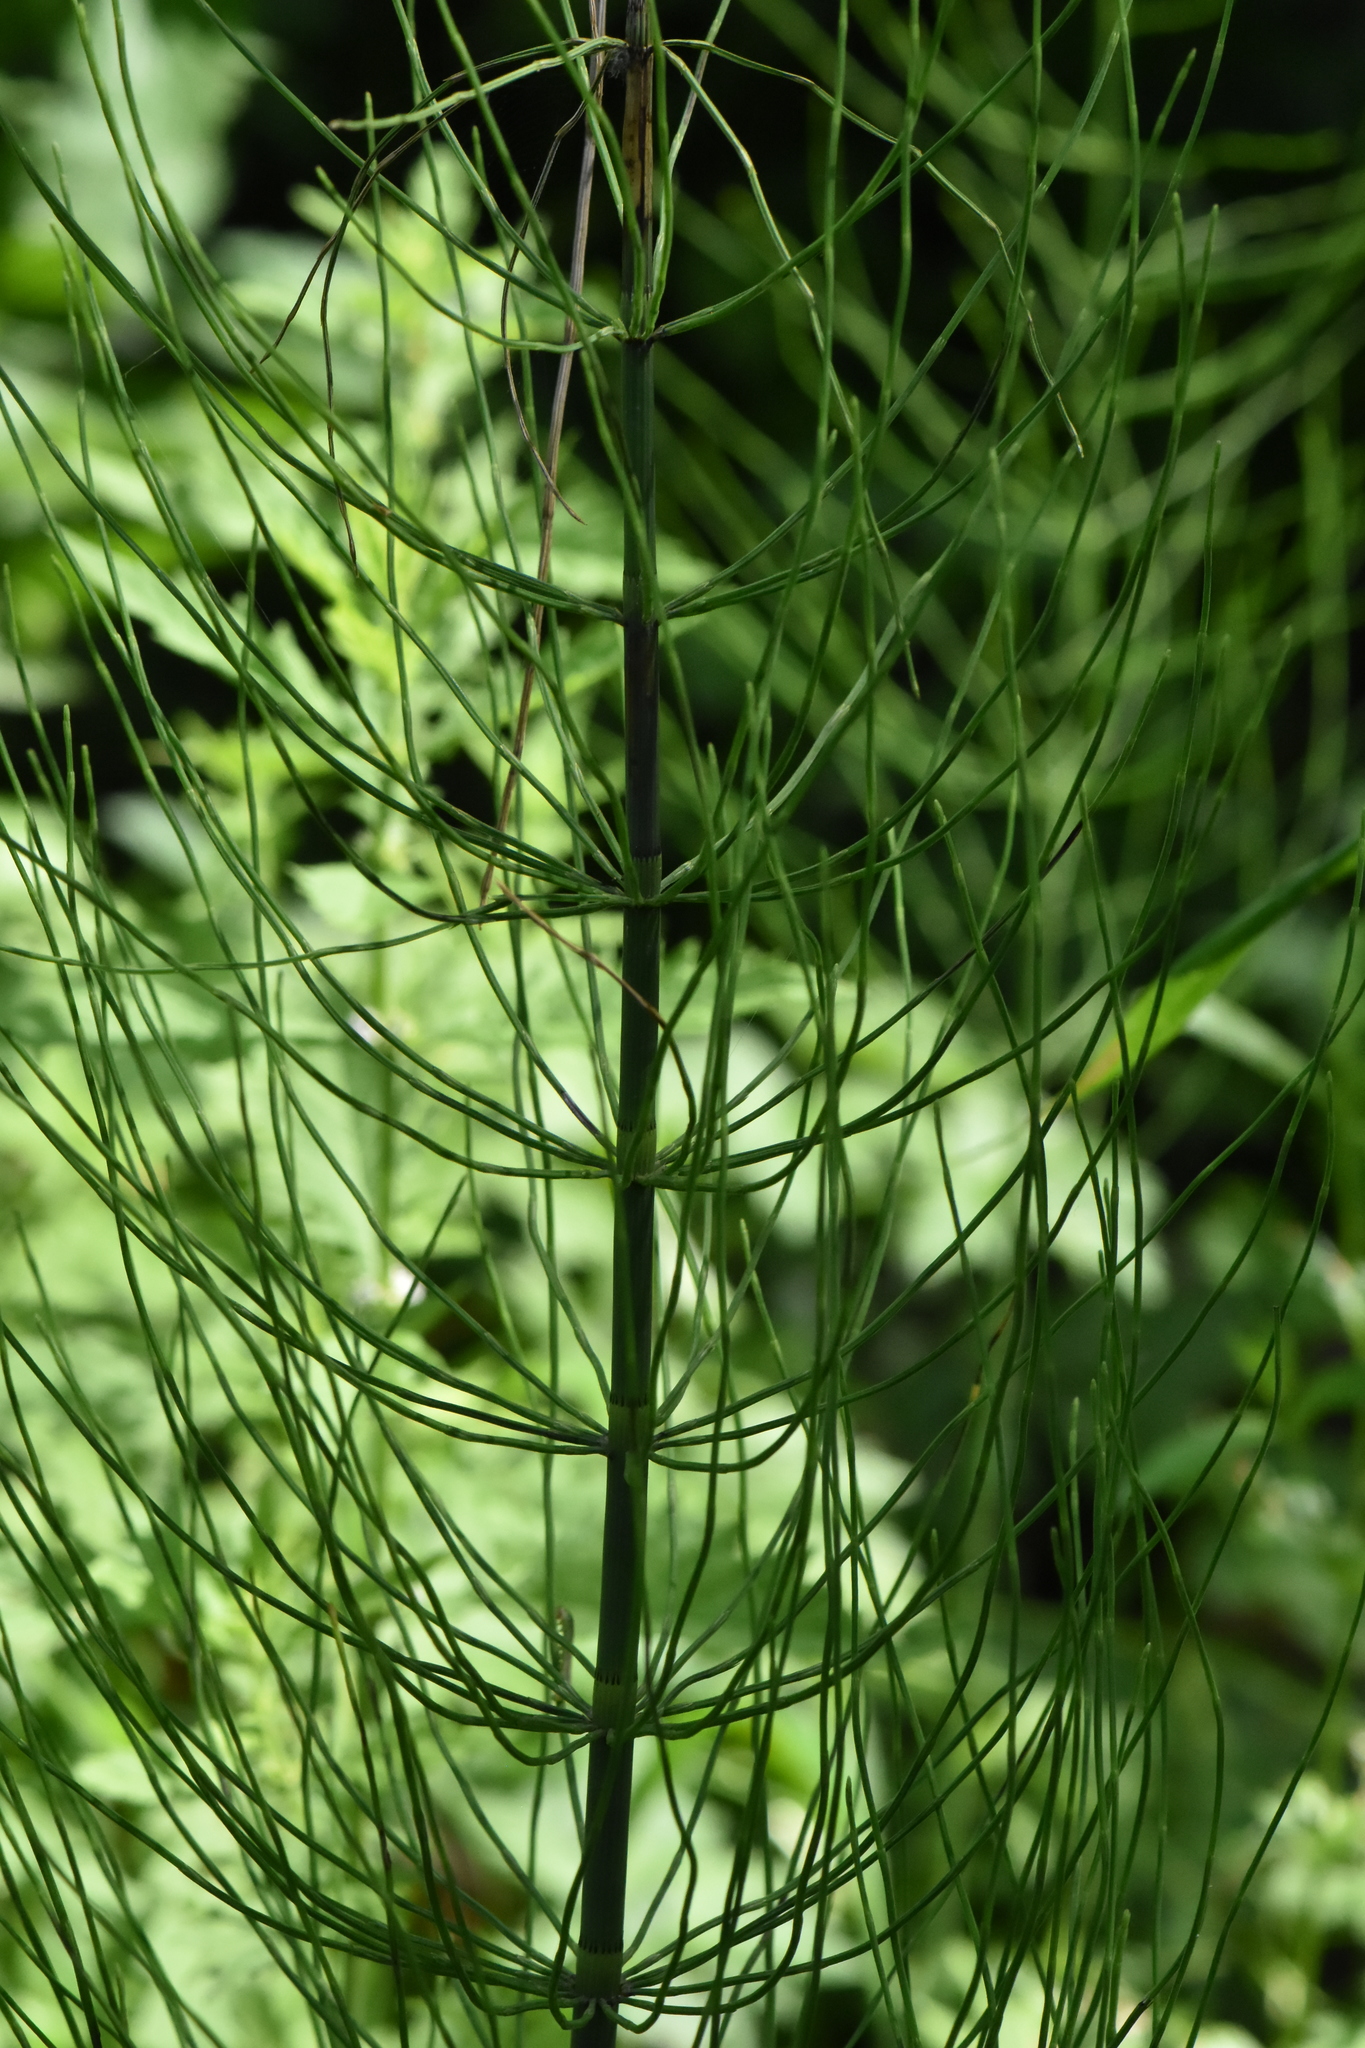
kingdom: Plantae
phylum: Tracheophyta
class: Polypodiopsida
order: Equisetales
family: Equisetaceae
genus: Equisetum
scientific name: Equisetum fluviatile
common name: Water horsetail
